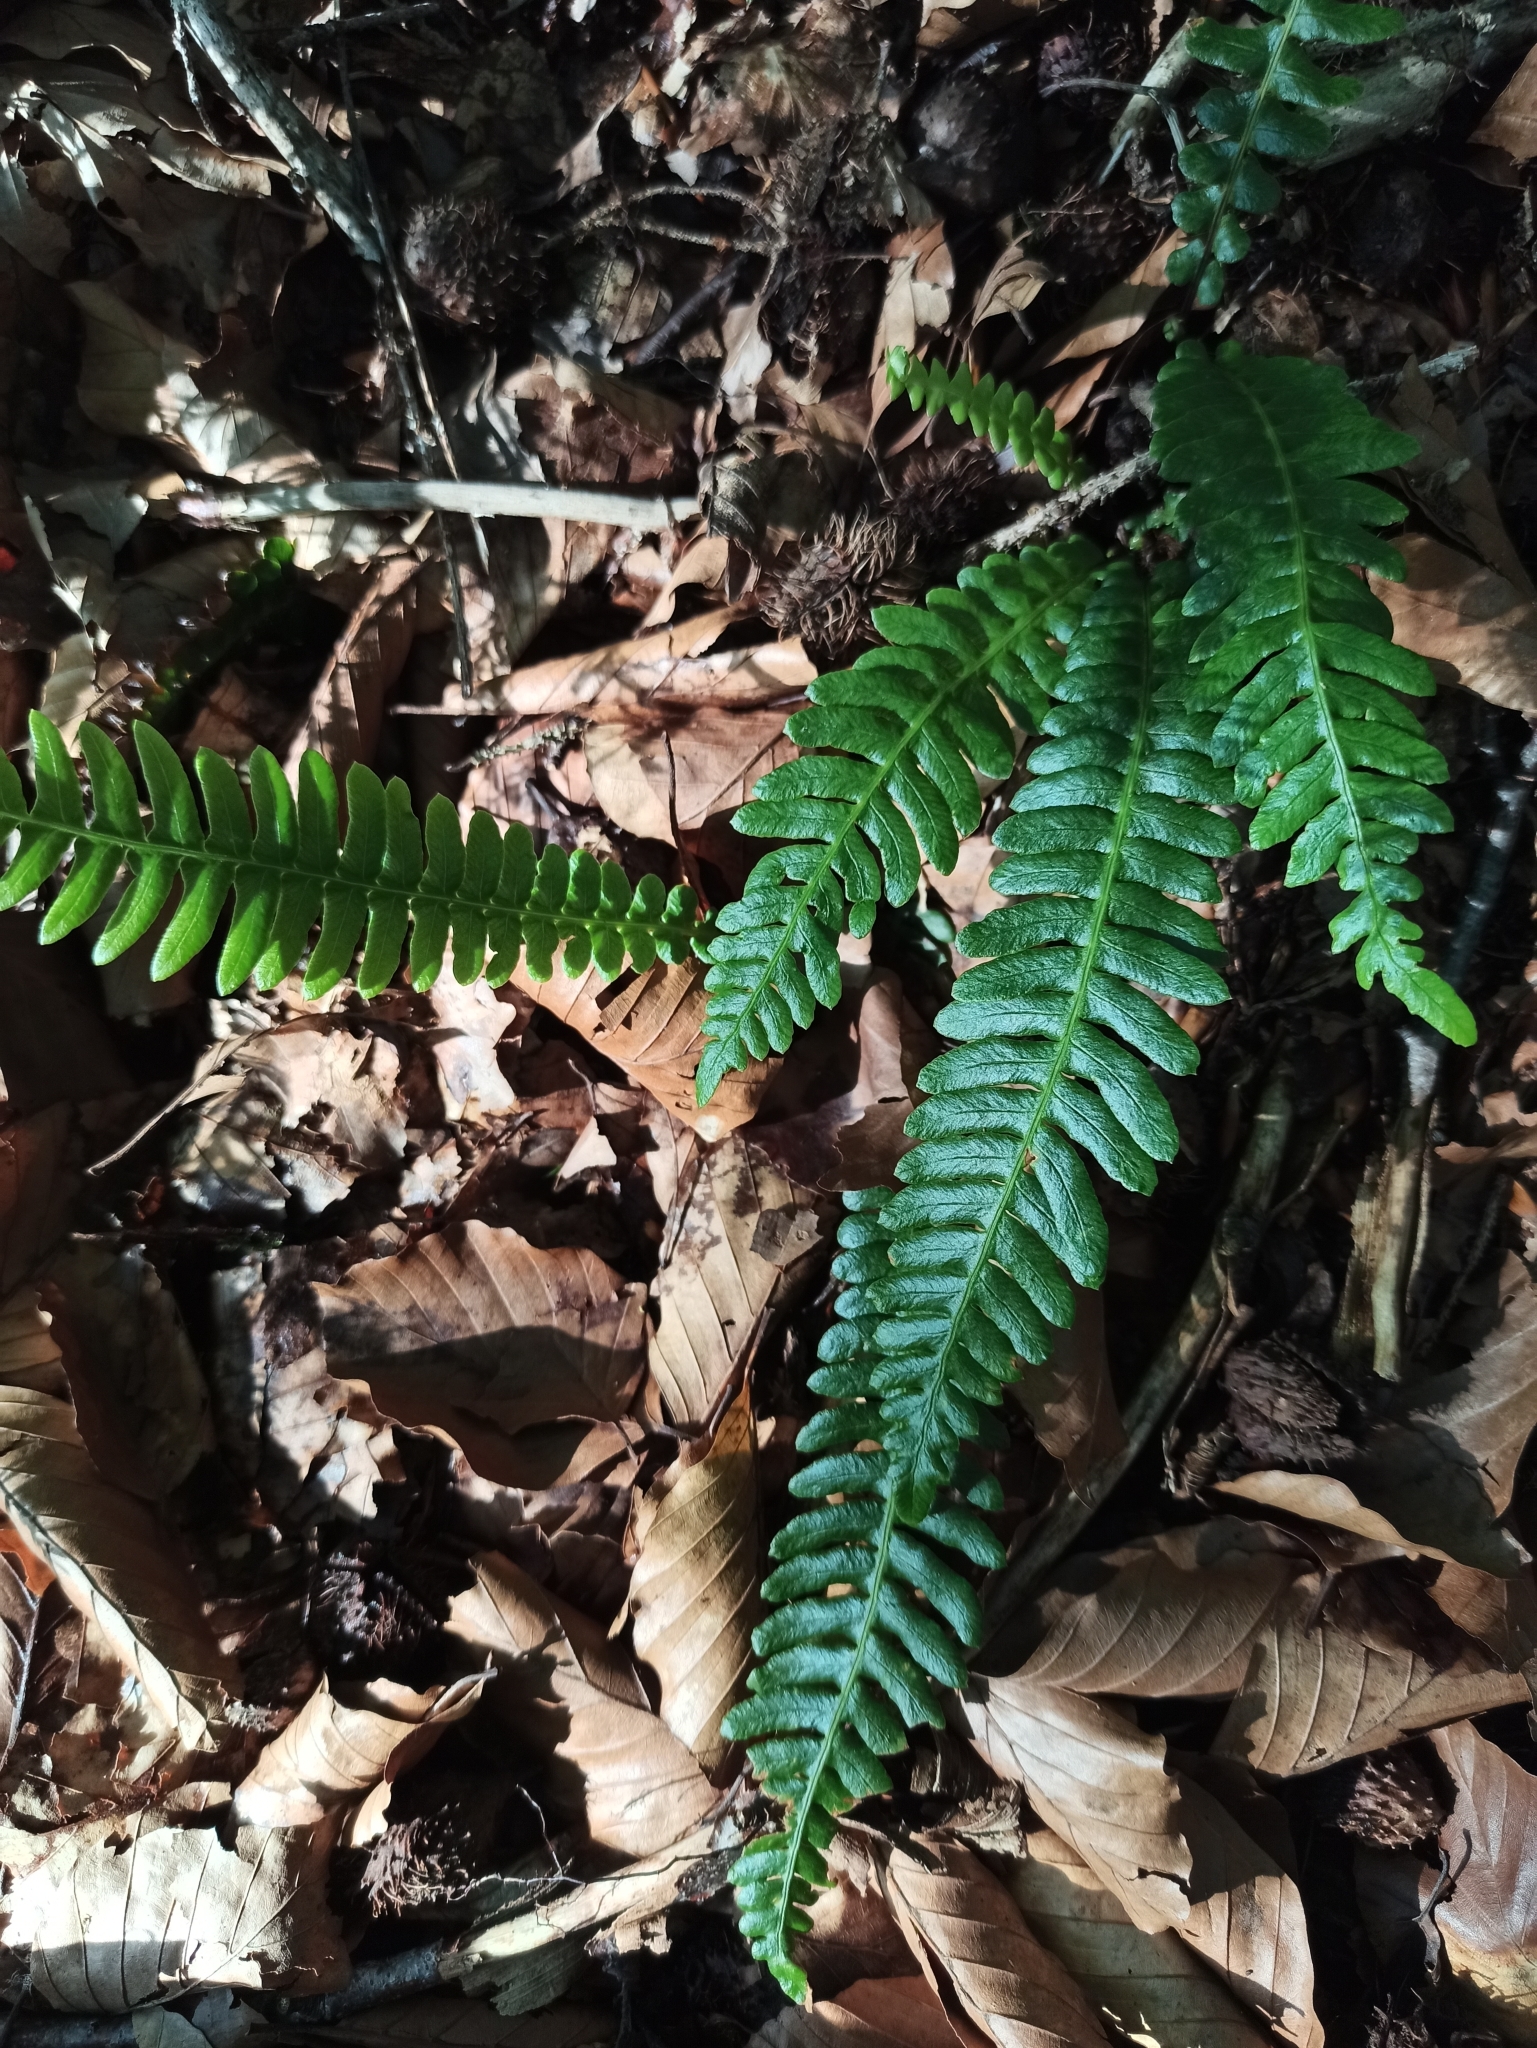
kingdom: Plantae
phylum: Tracheophyta
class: Polypodiopsida
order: Polypodiales
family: Blechnaceae
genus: Struthiopteris
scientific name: Struthiopteris spicant
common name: Deer fern
